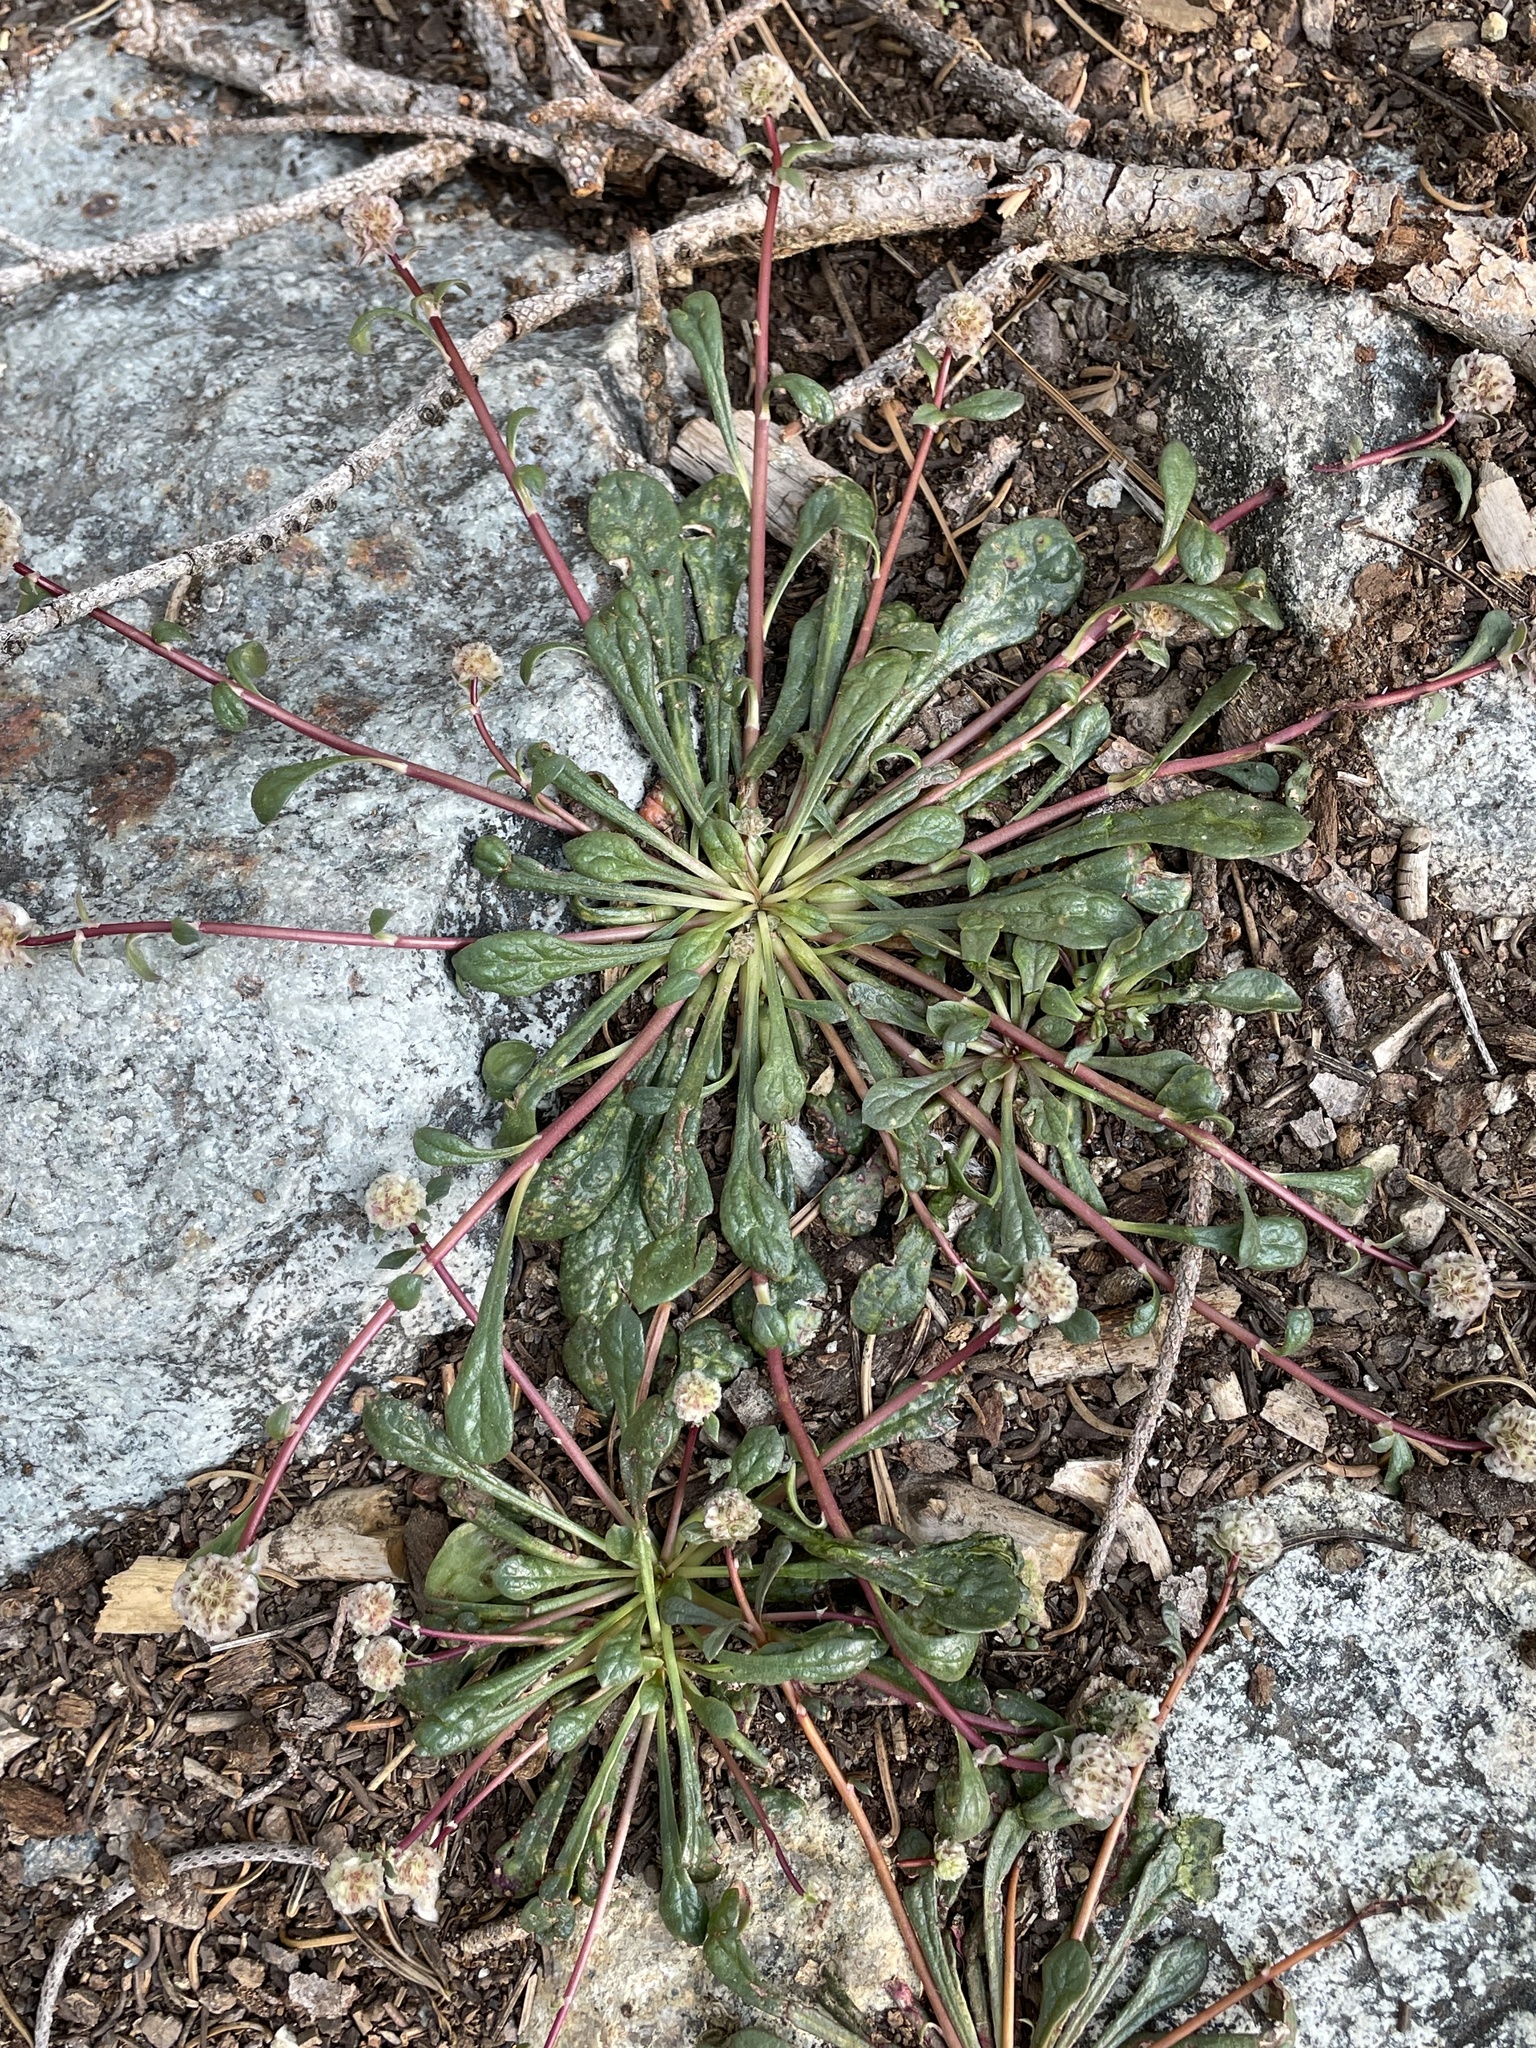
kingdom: Plantae
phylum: Tracheophyta
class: Magnoliopsida
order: Caryophyllales
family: Montiaceae
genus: Calyptridium
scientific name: Calyptridium monospermum
